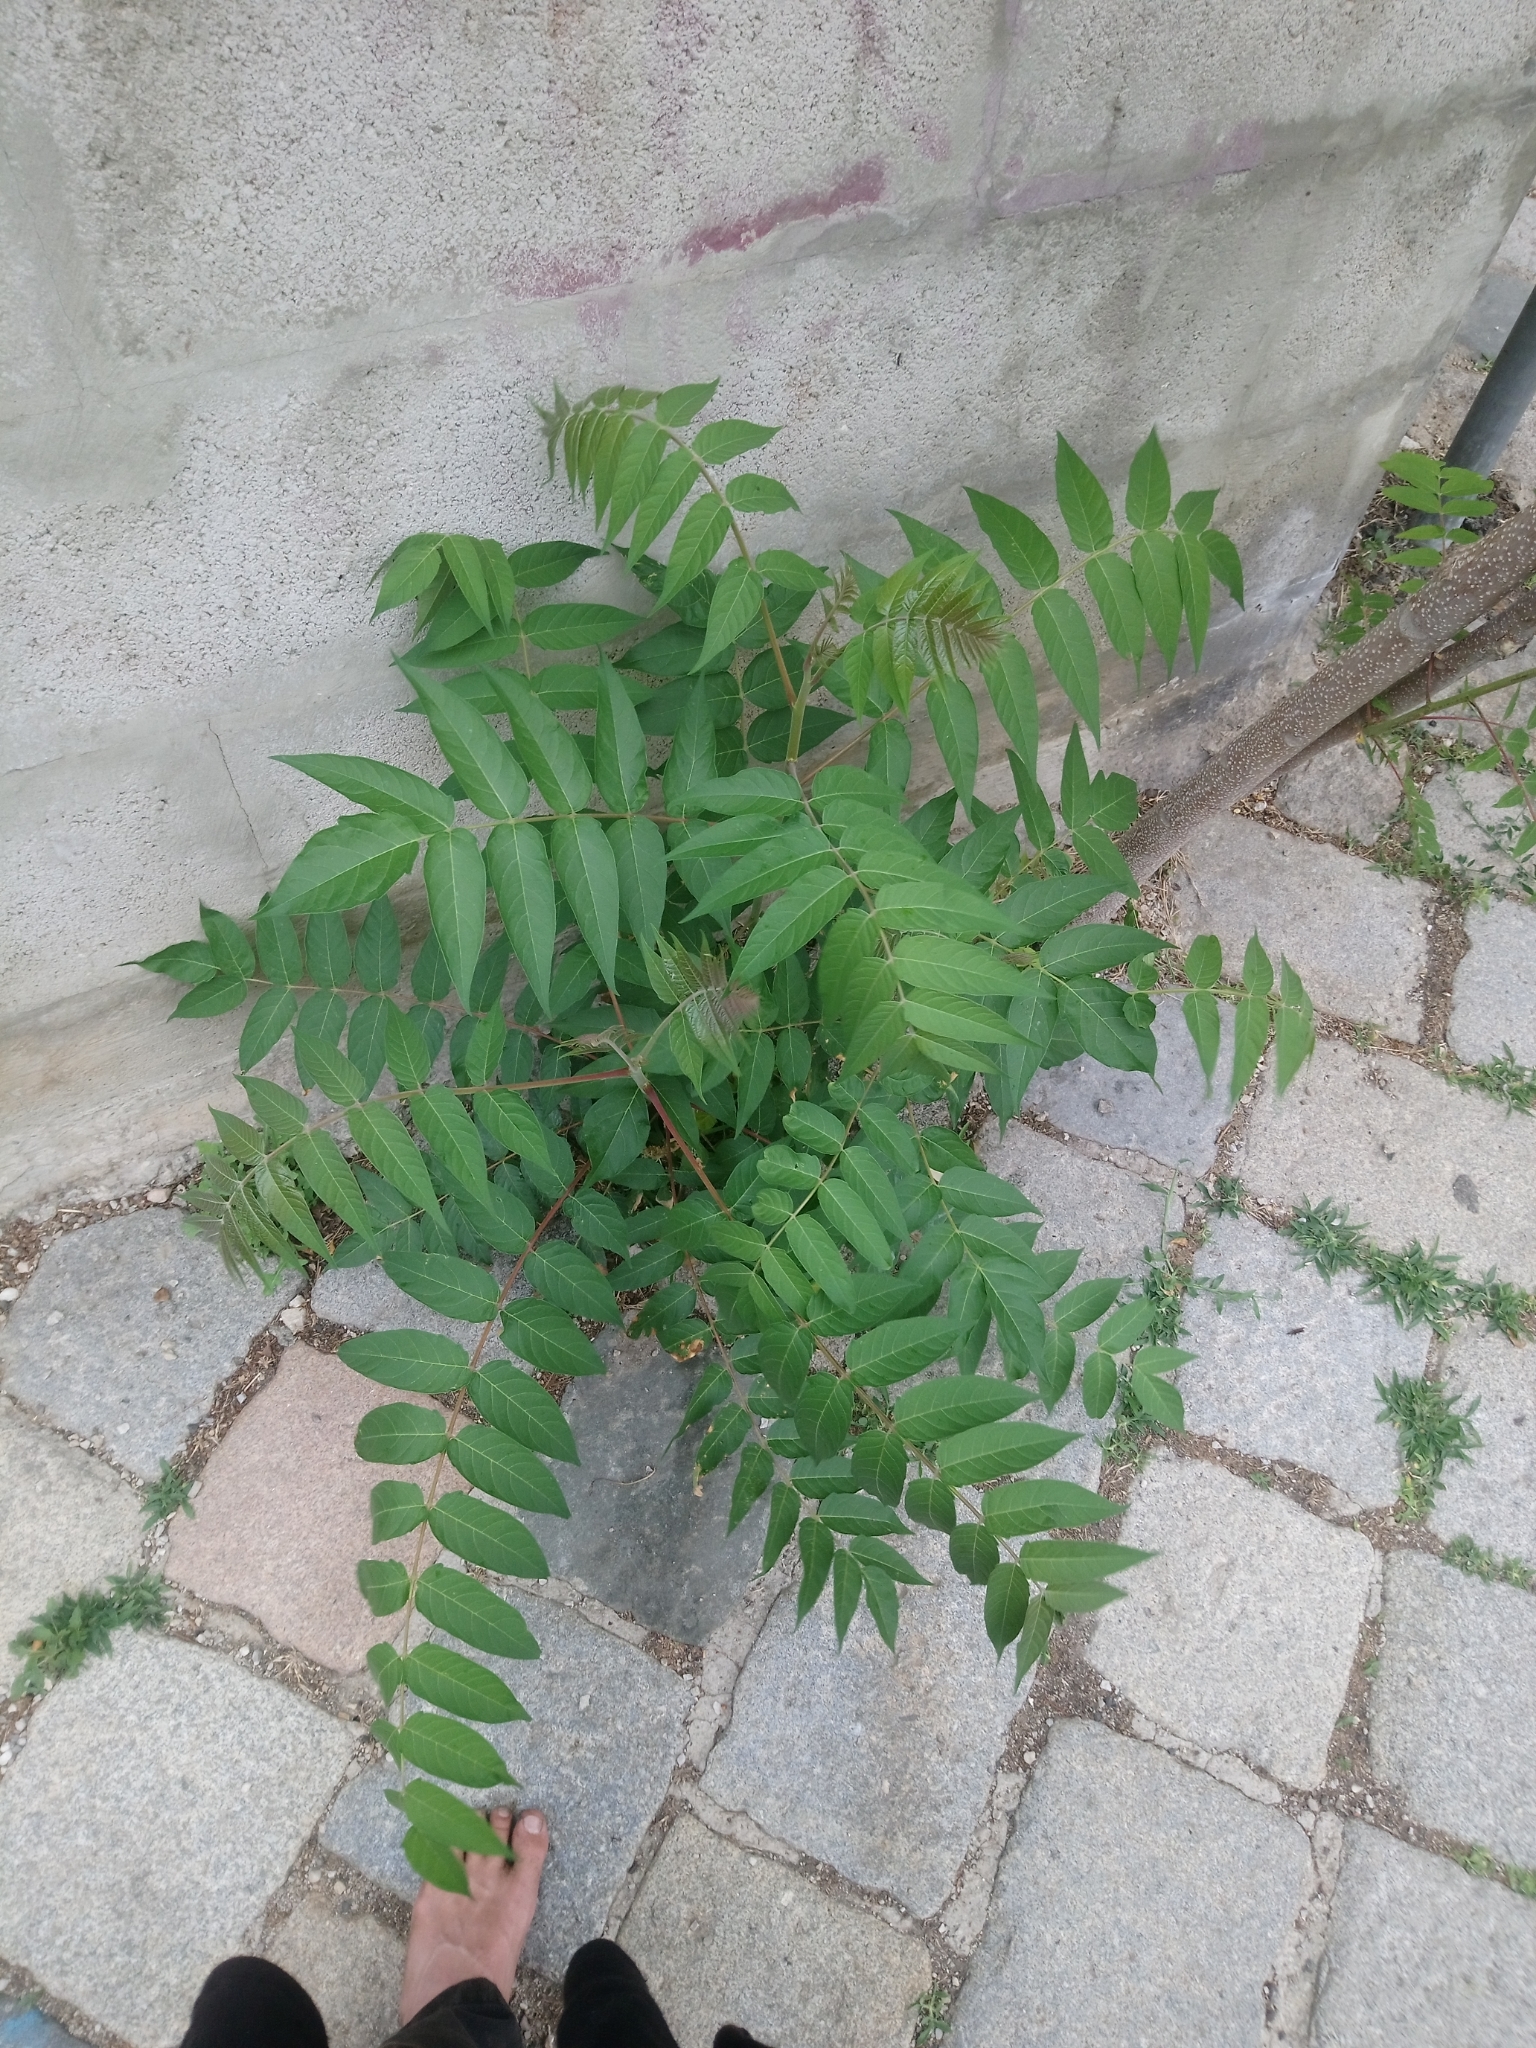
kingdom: Plantae
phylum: Tracheophyta
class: Magnoliopsida
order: Sapindales
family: Simaroubaceae
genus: Ailanthus
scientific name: Ailanthus altissima
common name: Tree-of-heaven
